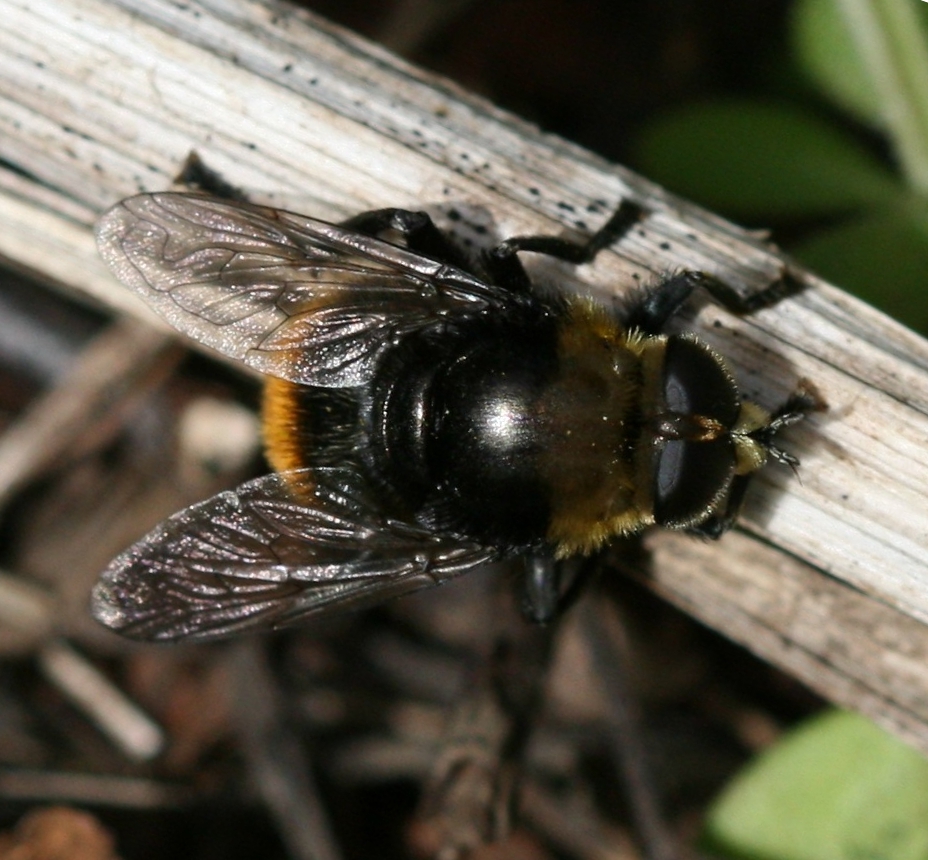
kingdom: Animalia
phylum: Arthropoda
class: Insecta
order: Diptera
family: Syrphidae
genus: Merodon
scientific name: Merodon equestris
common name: Greater bulb-fly
